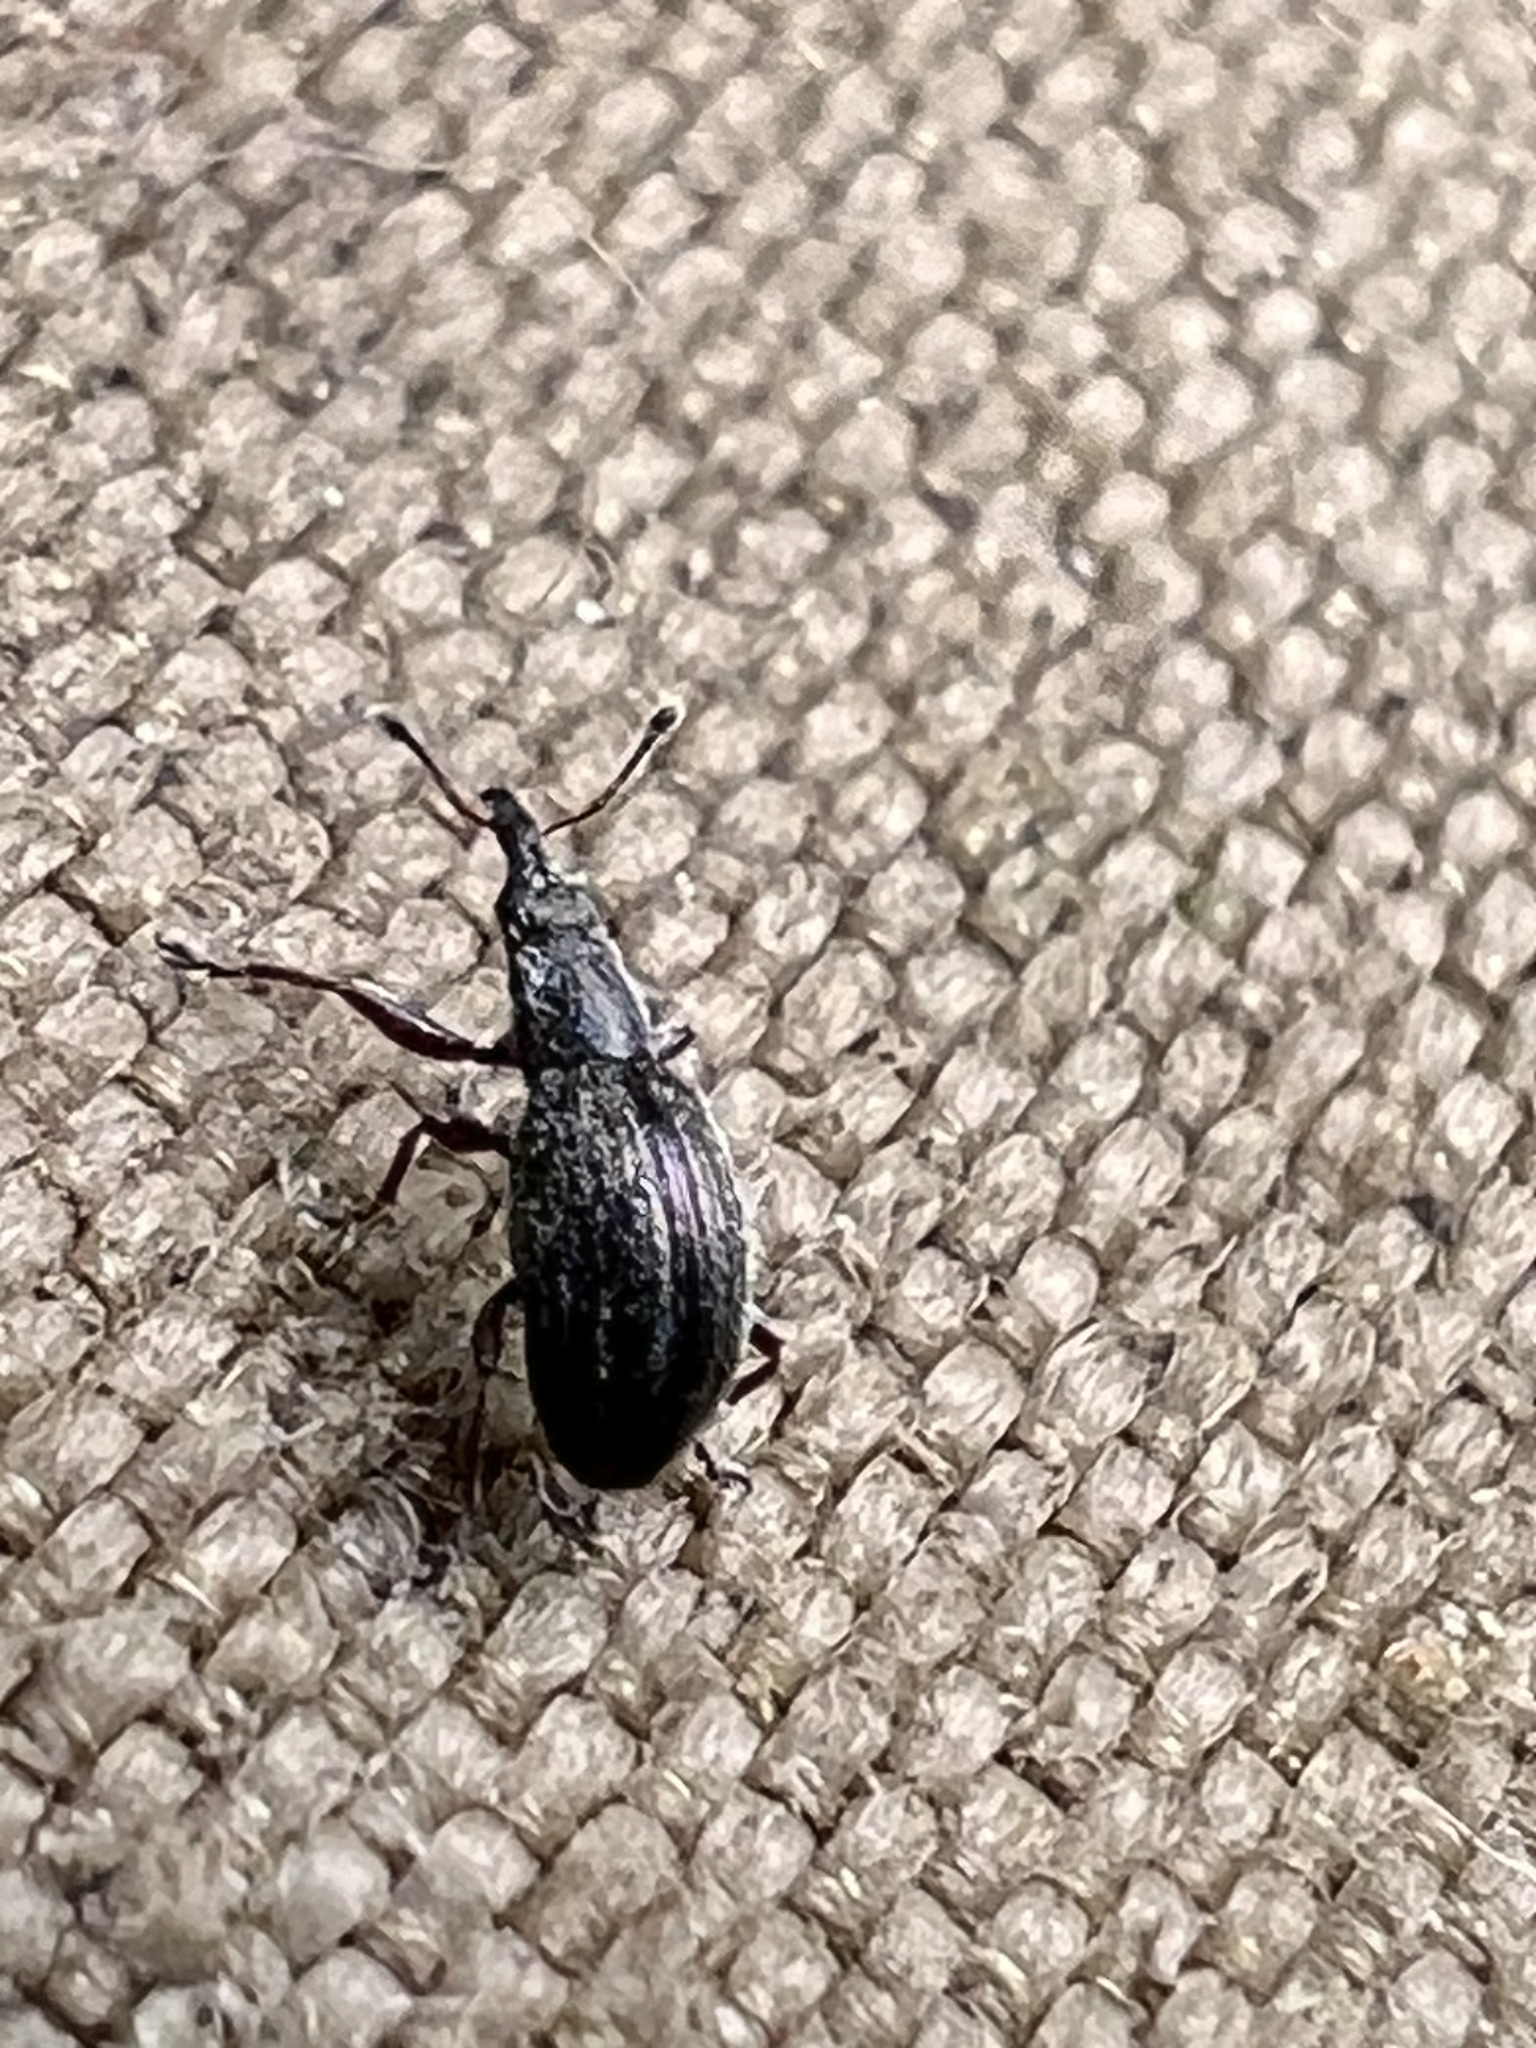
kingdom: Animalia
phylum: Arthropoda
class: Insecta
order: Coleoptera
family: Brentidae
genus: Neocyba
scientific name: Neocyba metrosideros
